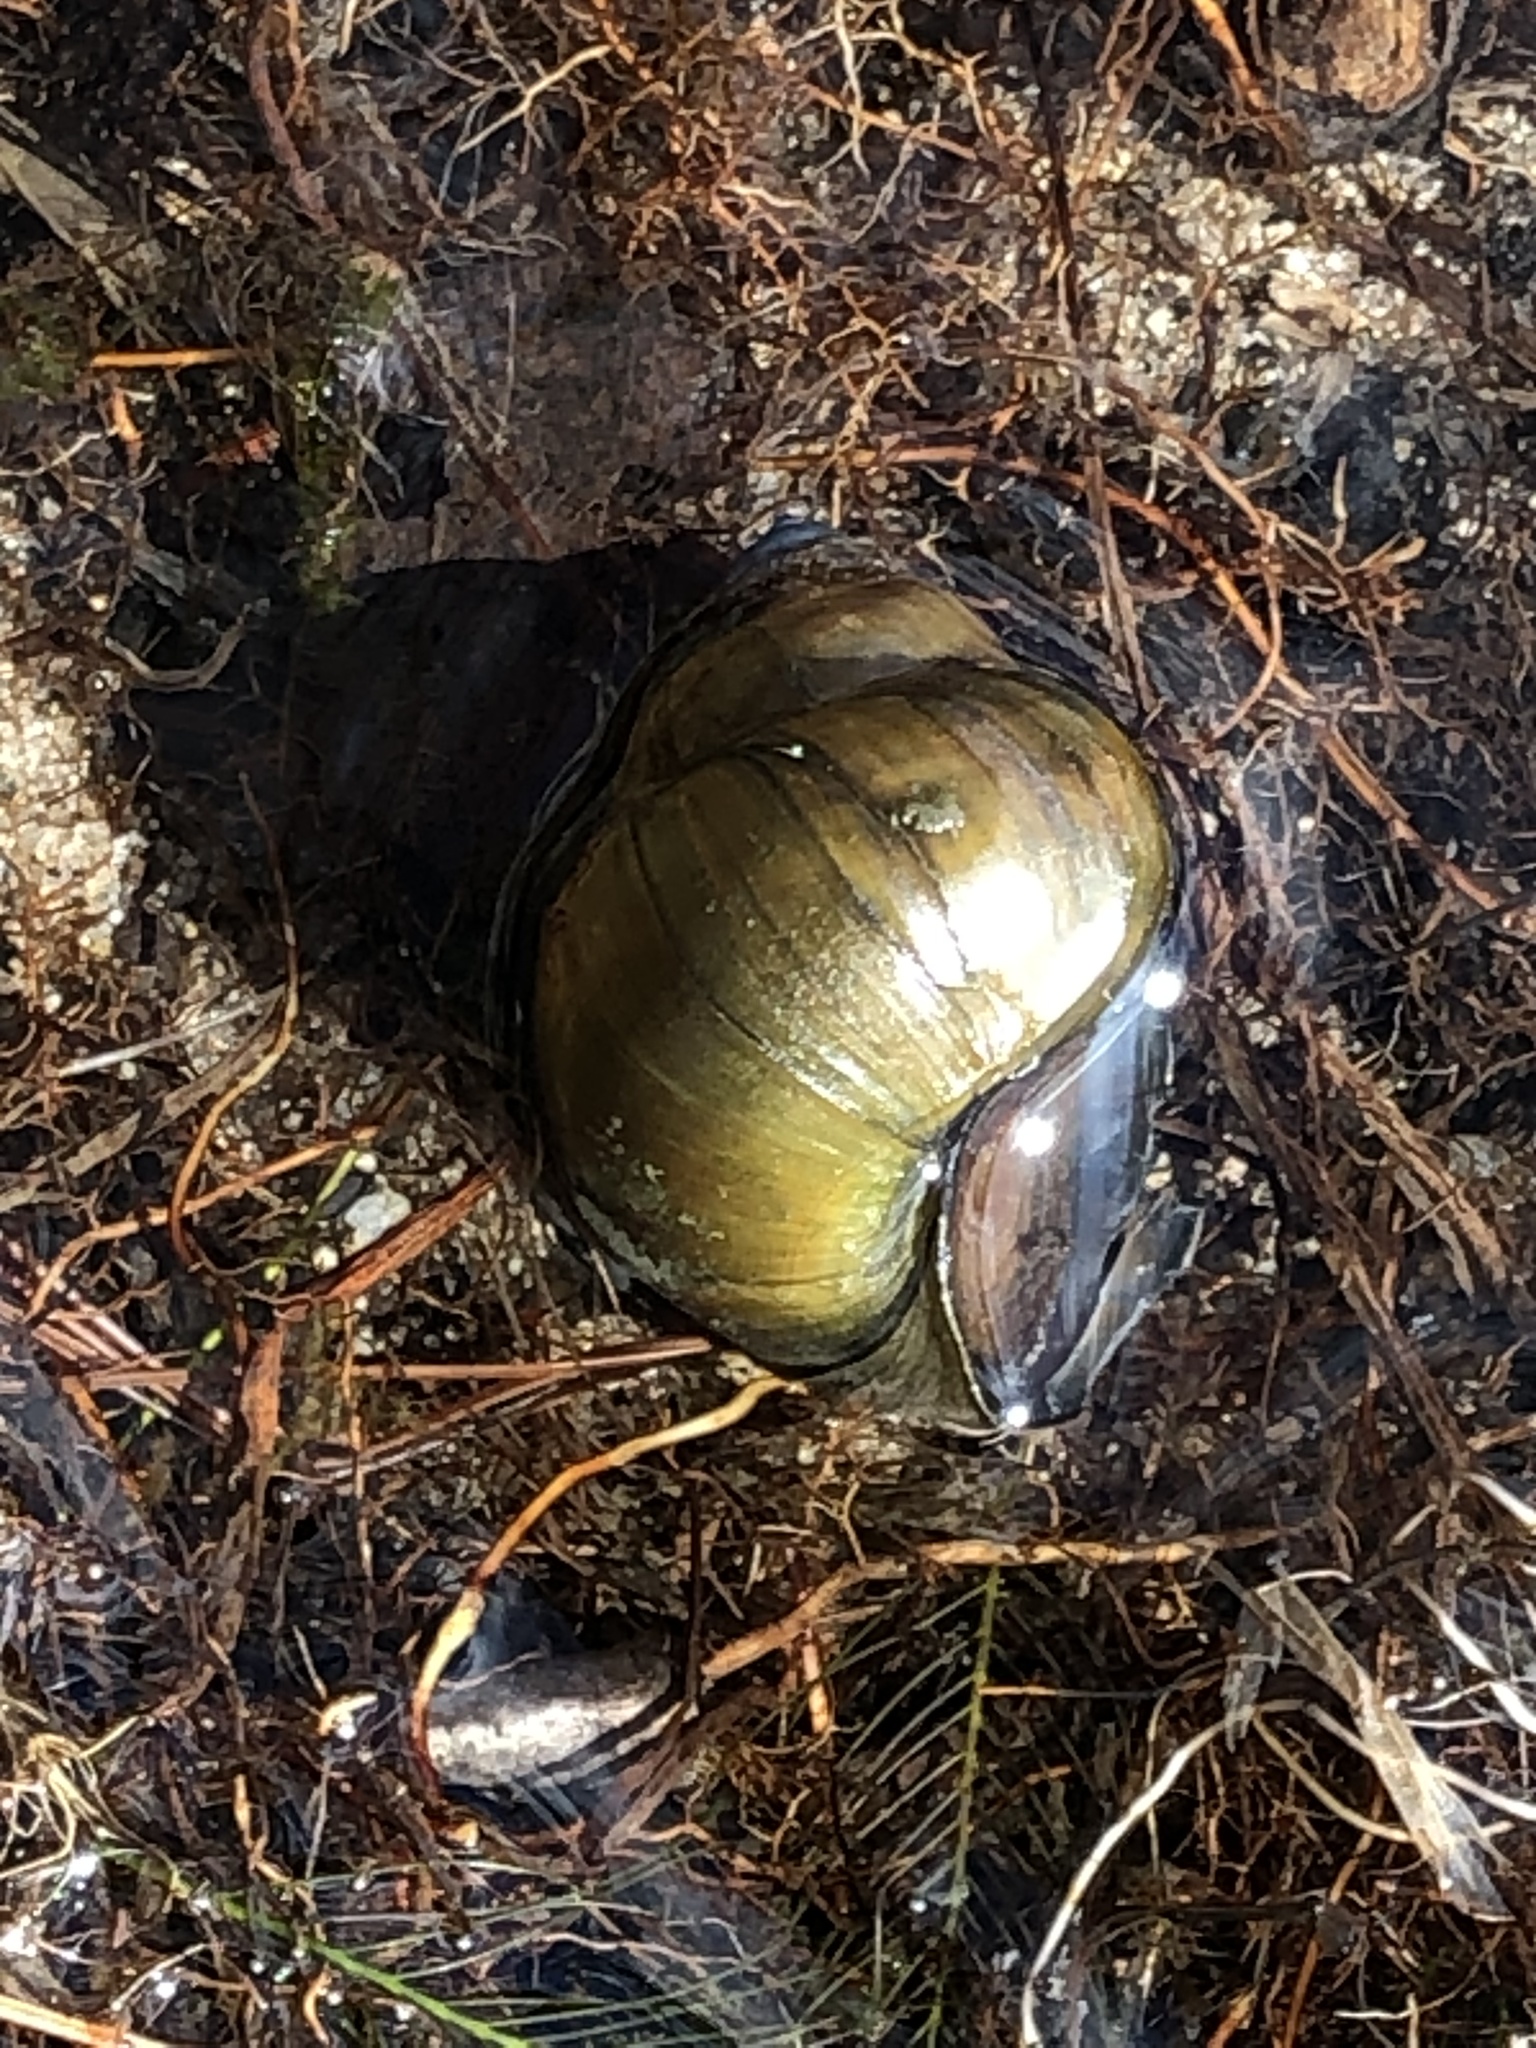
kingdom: Animalia
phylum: Mollusca
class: Gastropoda
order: Architaenioglossa
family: Viviparidae
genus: Cipangopaludina
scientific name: Cipangopaludina chinensis
